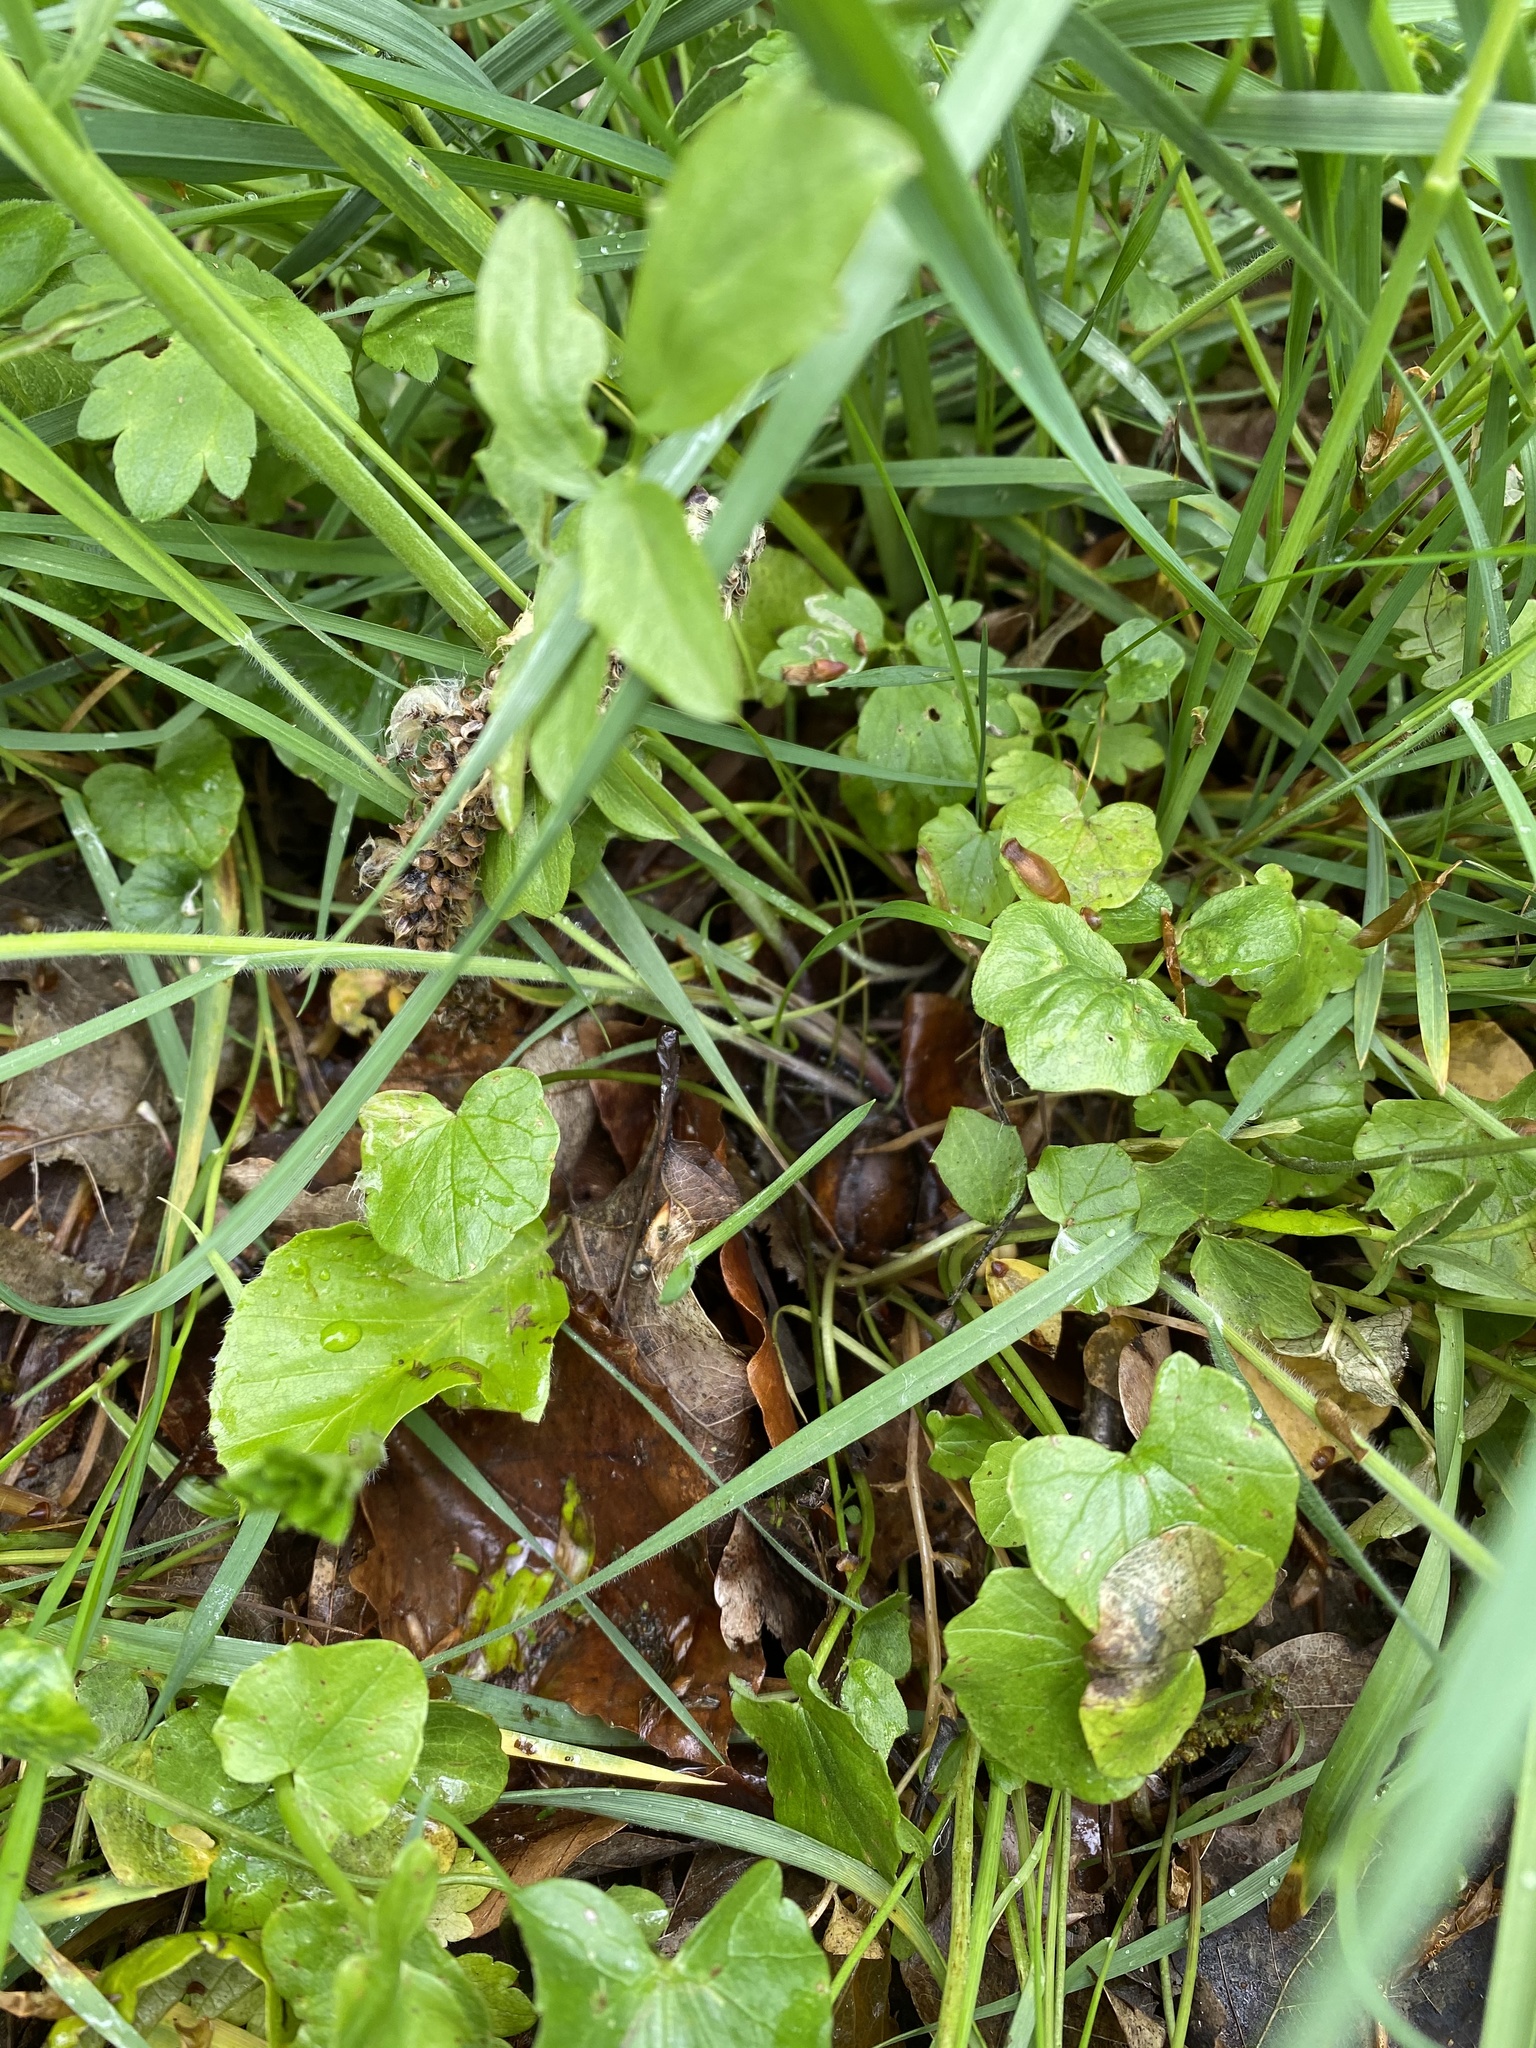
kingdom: Plantae
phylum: Tracheophyta
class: Magnoliopsida
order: Brassicales
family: Brassicaceae
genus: Cardamine
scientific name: Cardamine pratensis
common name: Cuckoo flower
